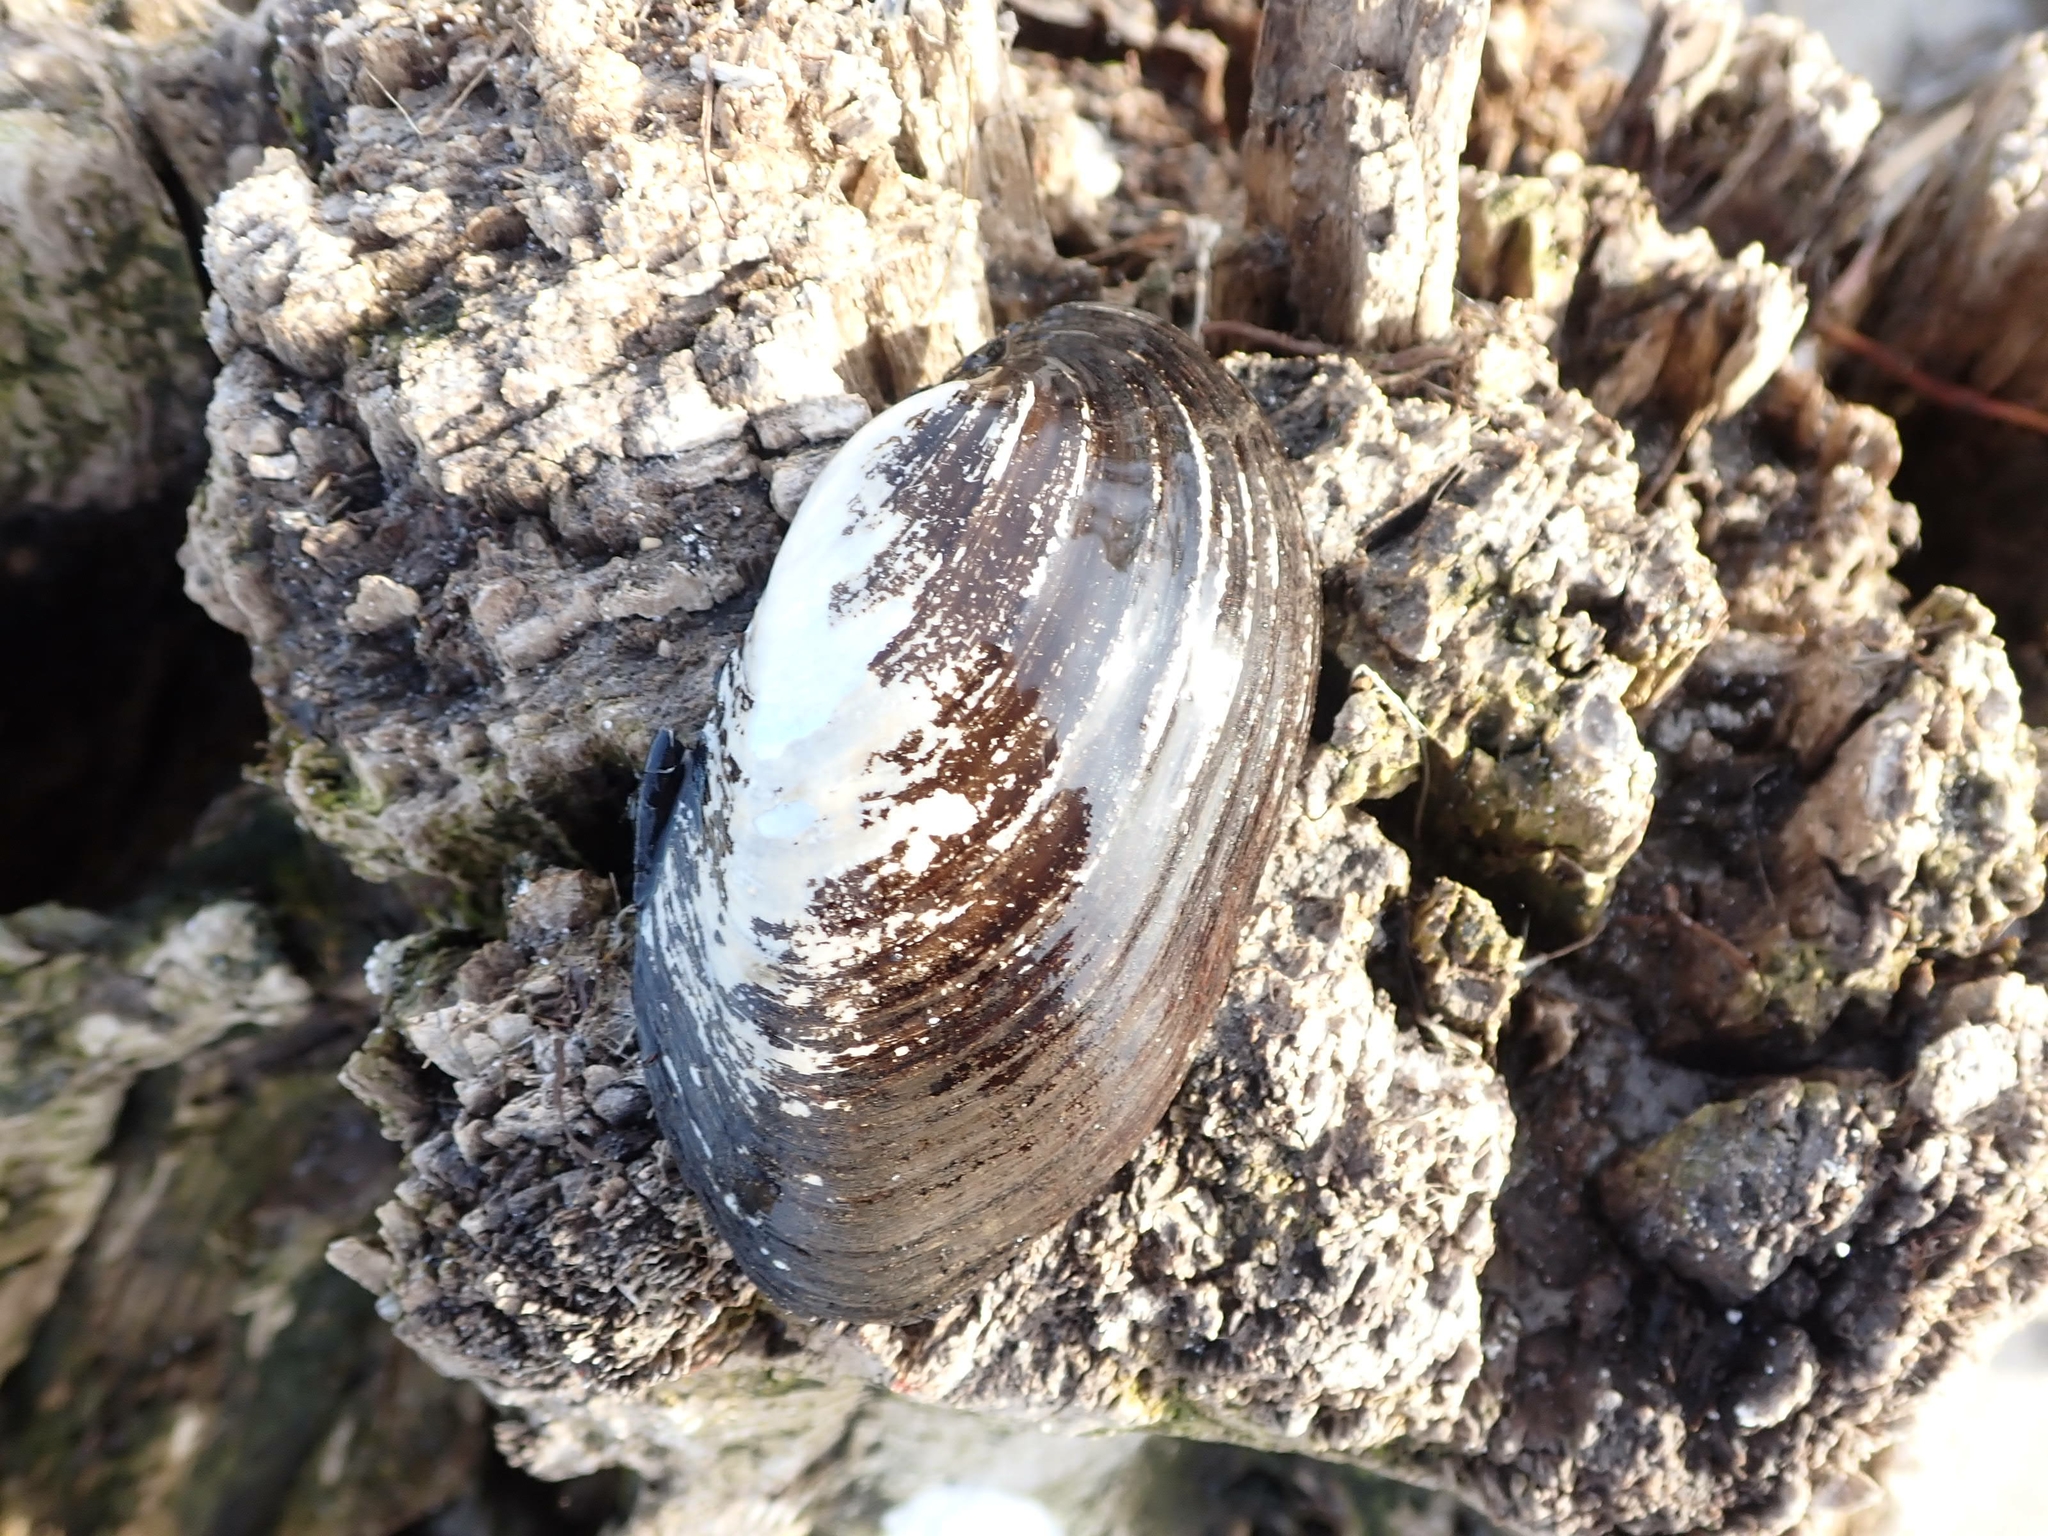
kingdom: Animalia
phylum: Mollusca
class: Bivalvia
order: Unionida
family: Unionidae
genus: Lampsilis
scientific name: Lampsilis siliquoidea
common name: Fatmucket
